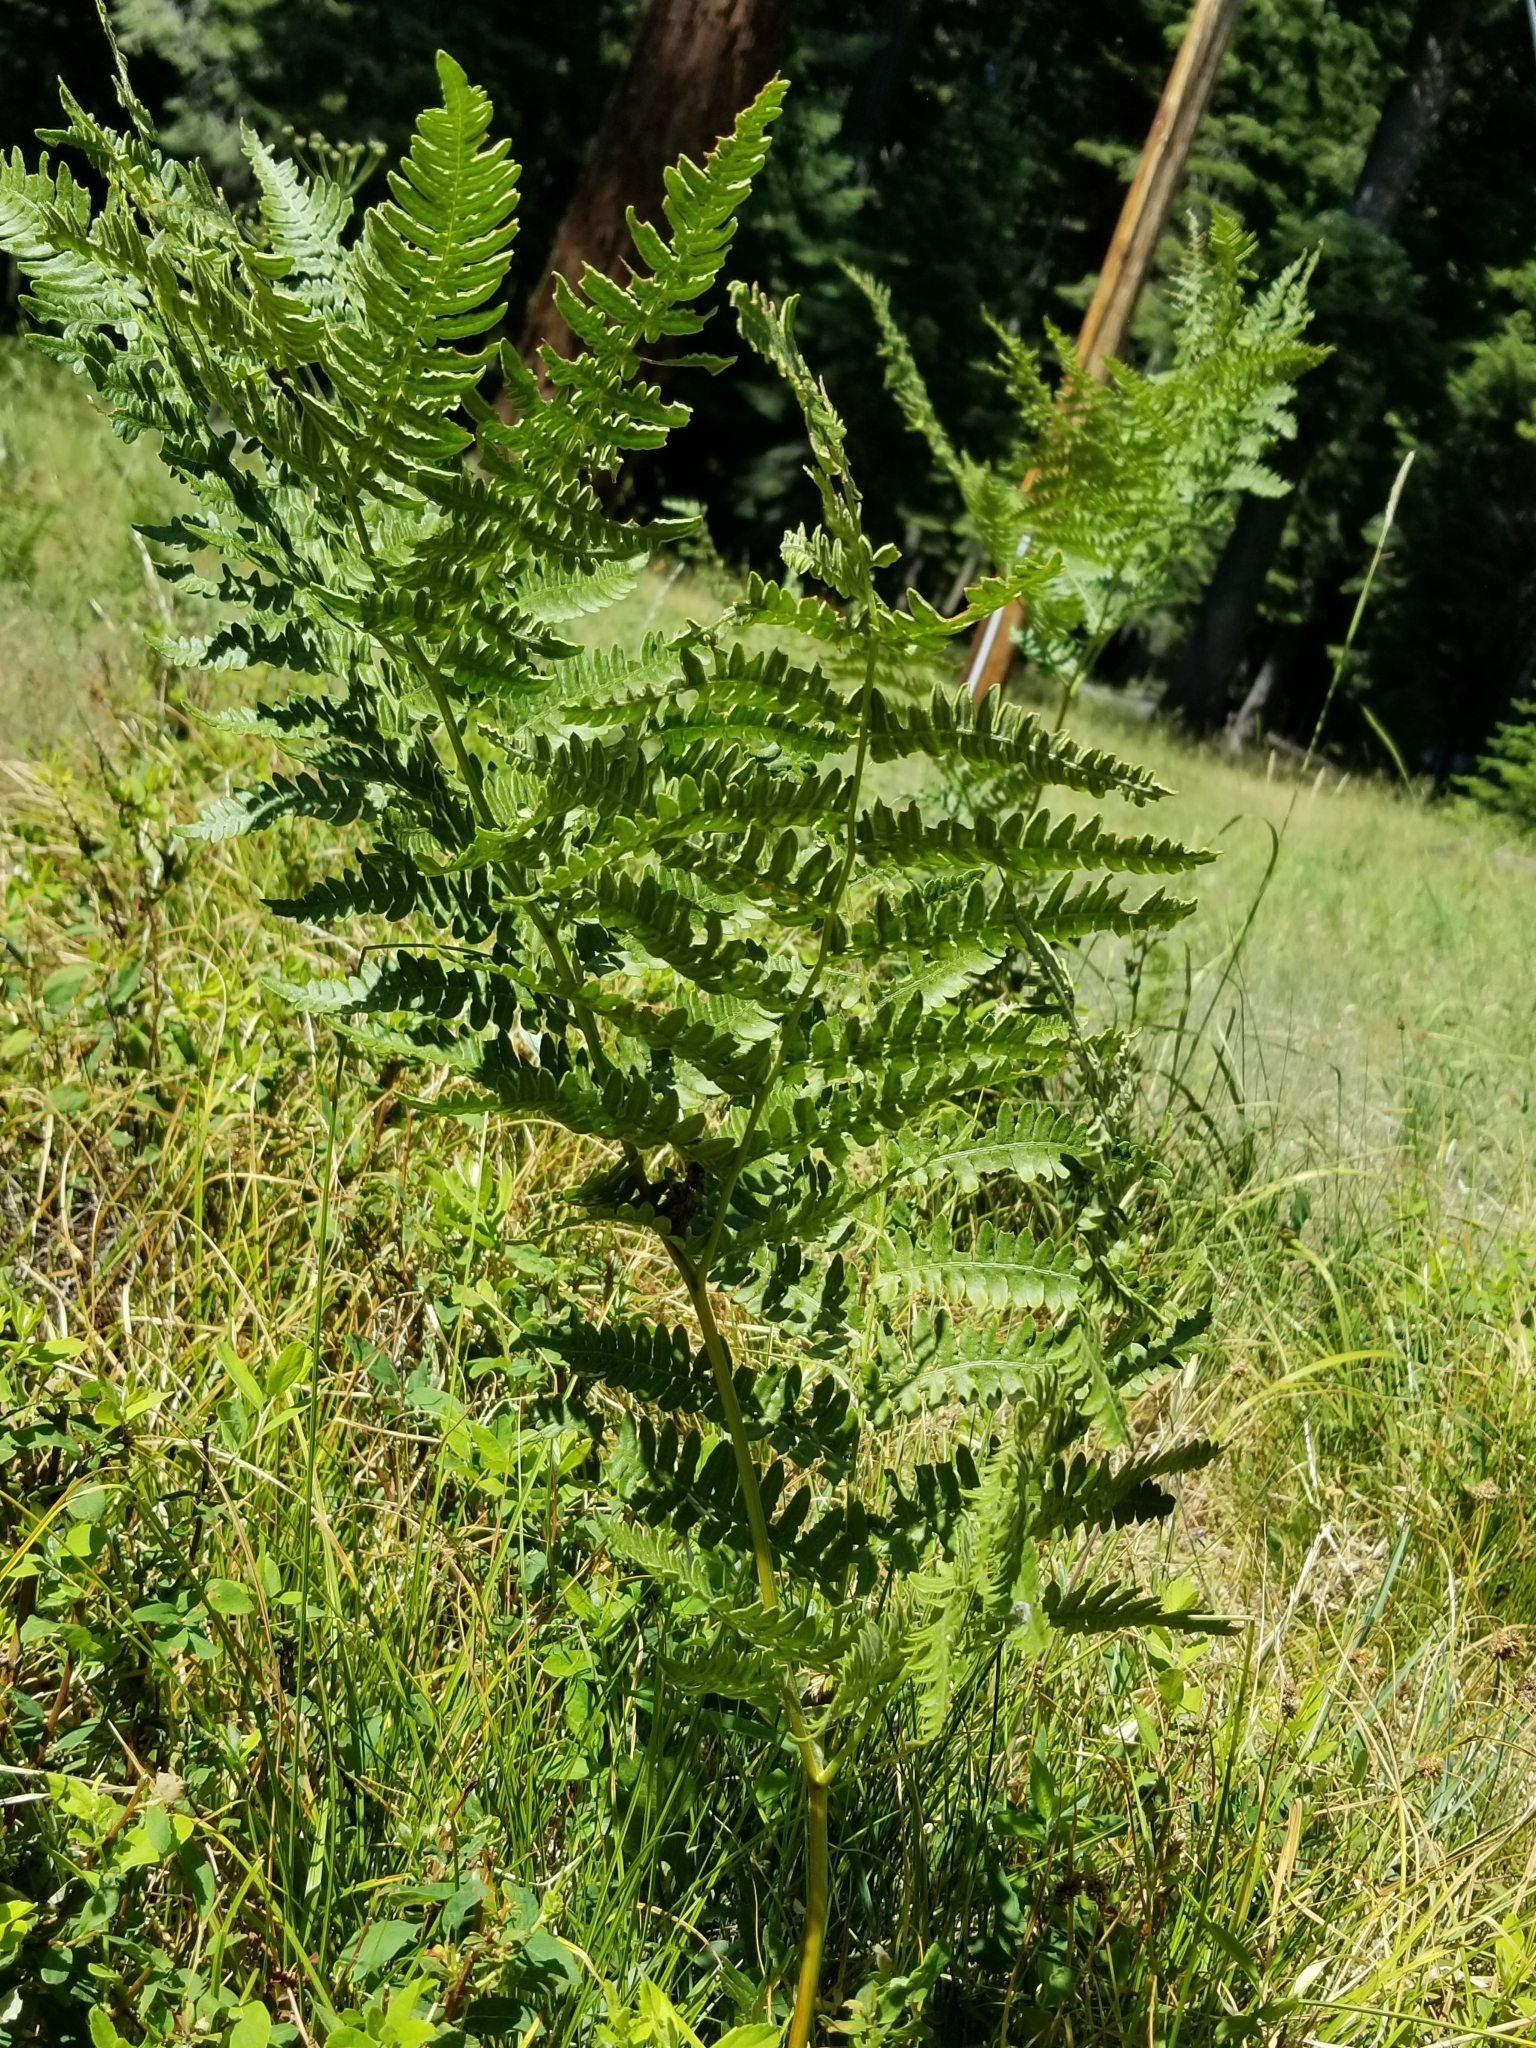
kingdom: Plantae
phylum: Tracheophyta
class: Polypodiopsida
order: Polypodiales
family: Dennstaedtiaceae
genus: Pteridium
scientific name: Pteridium aquilinum
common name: Bracken
